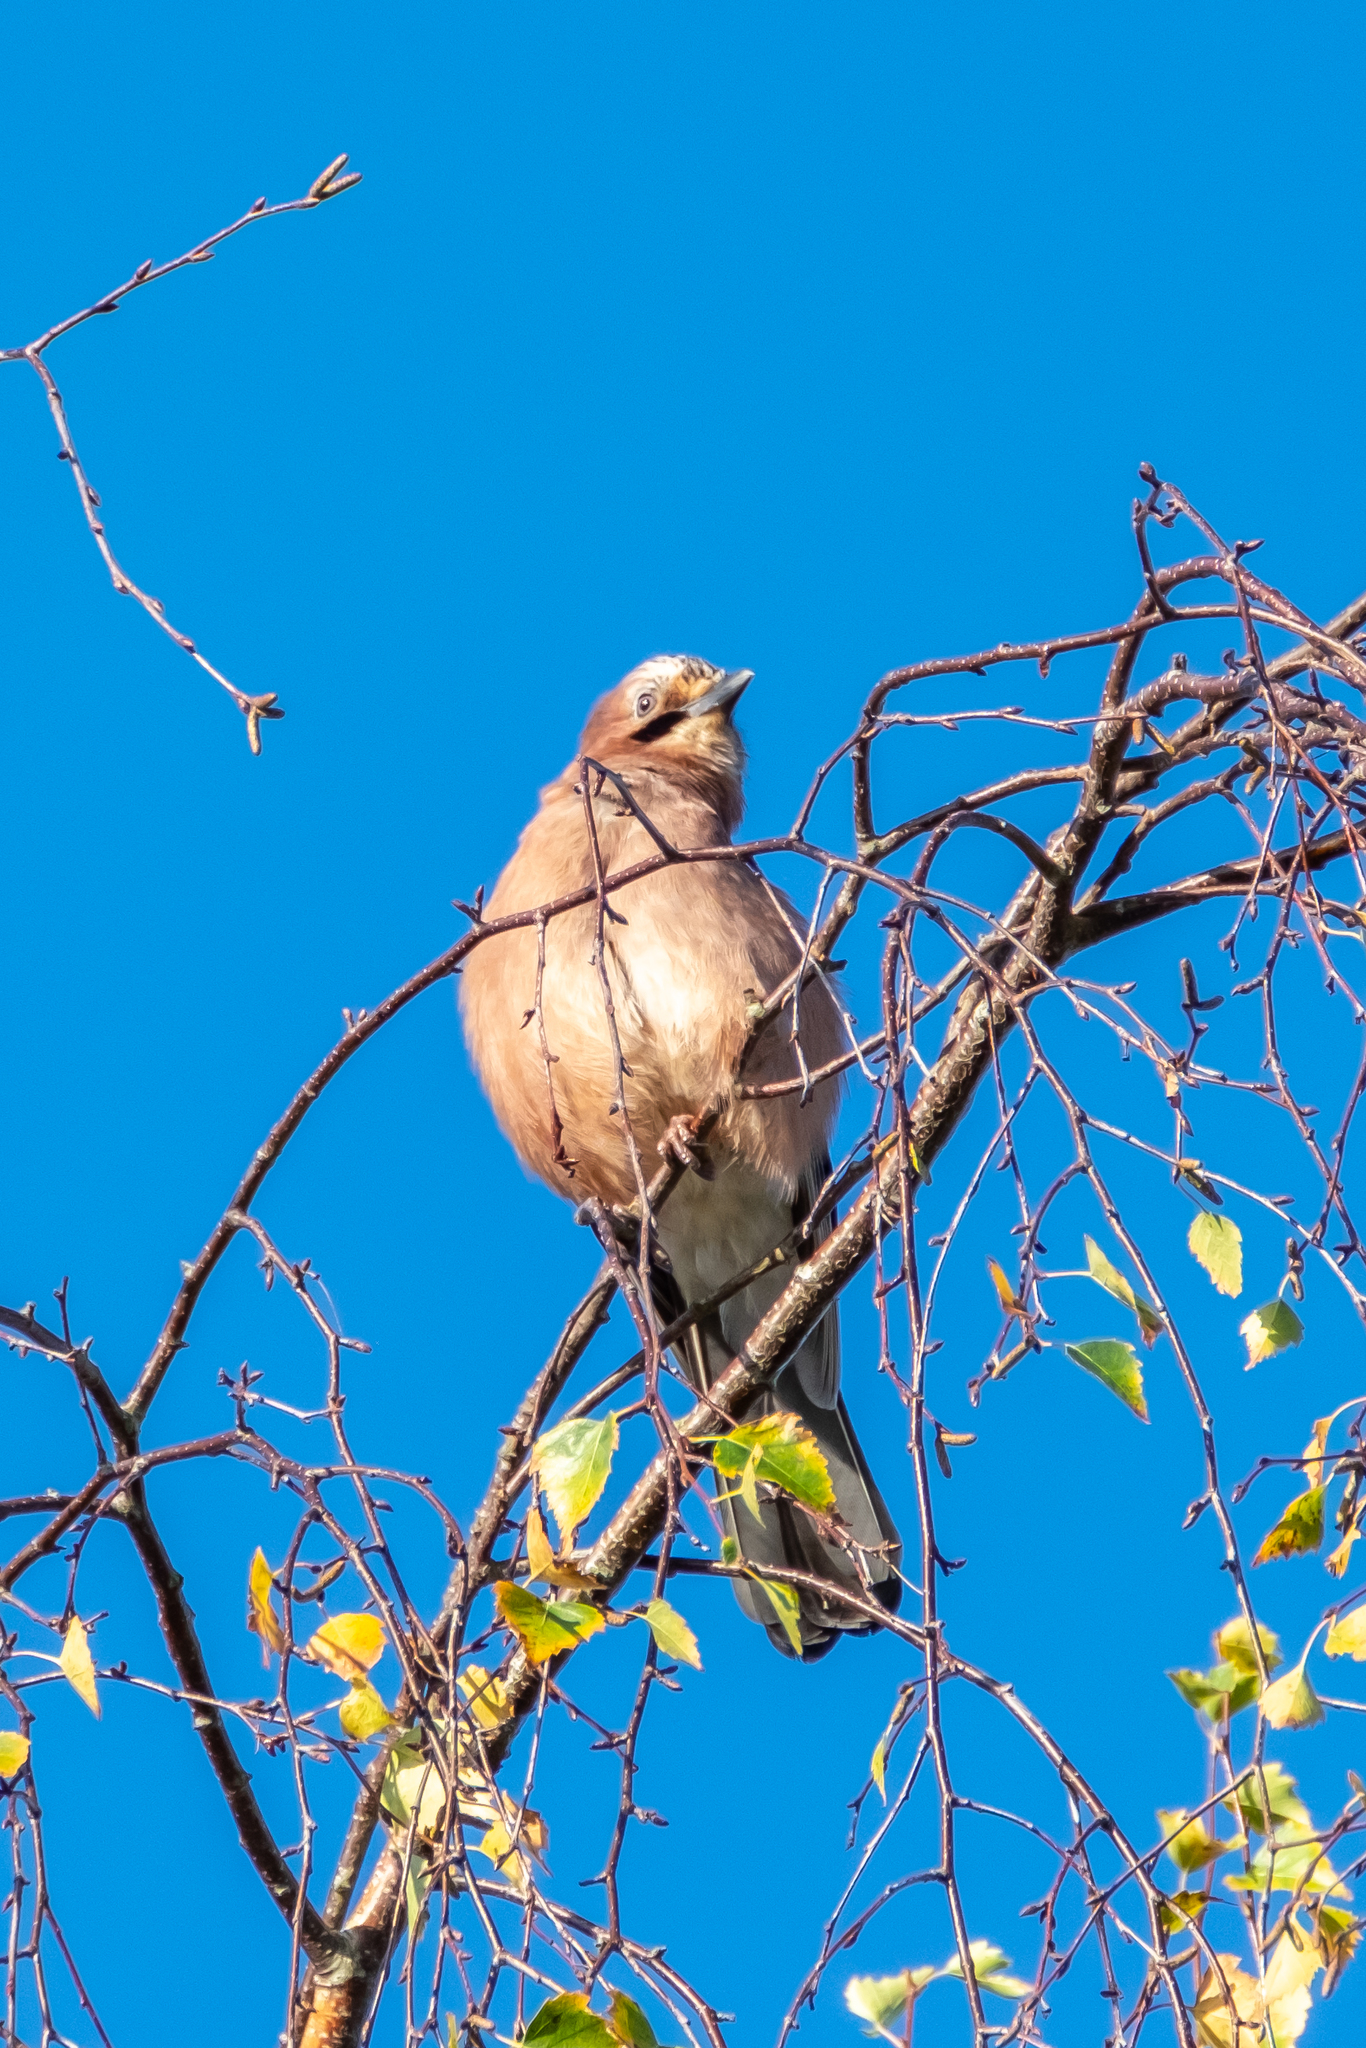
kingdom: Animalia
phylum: Chordata
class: Aves
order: Passeriformes
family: Corvidae
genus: Garrulus
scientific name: Garrulus glandarius
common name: Eurasian jay
